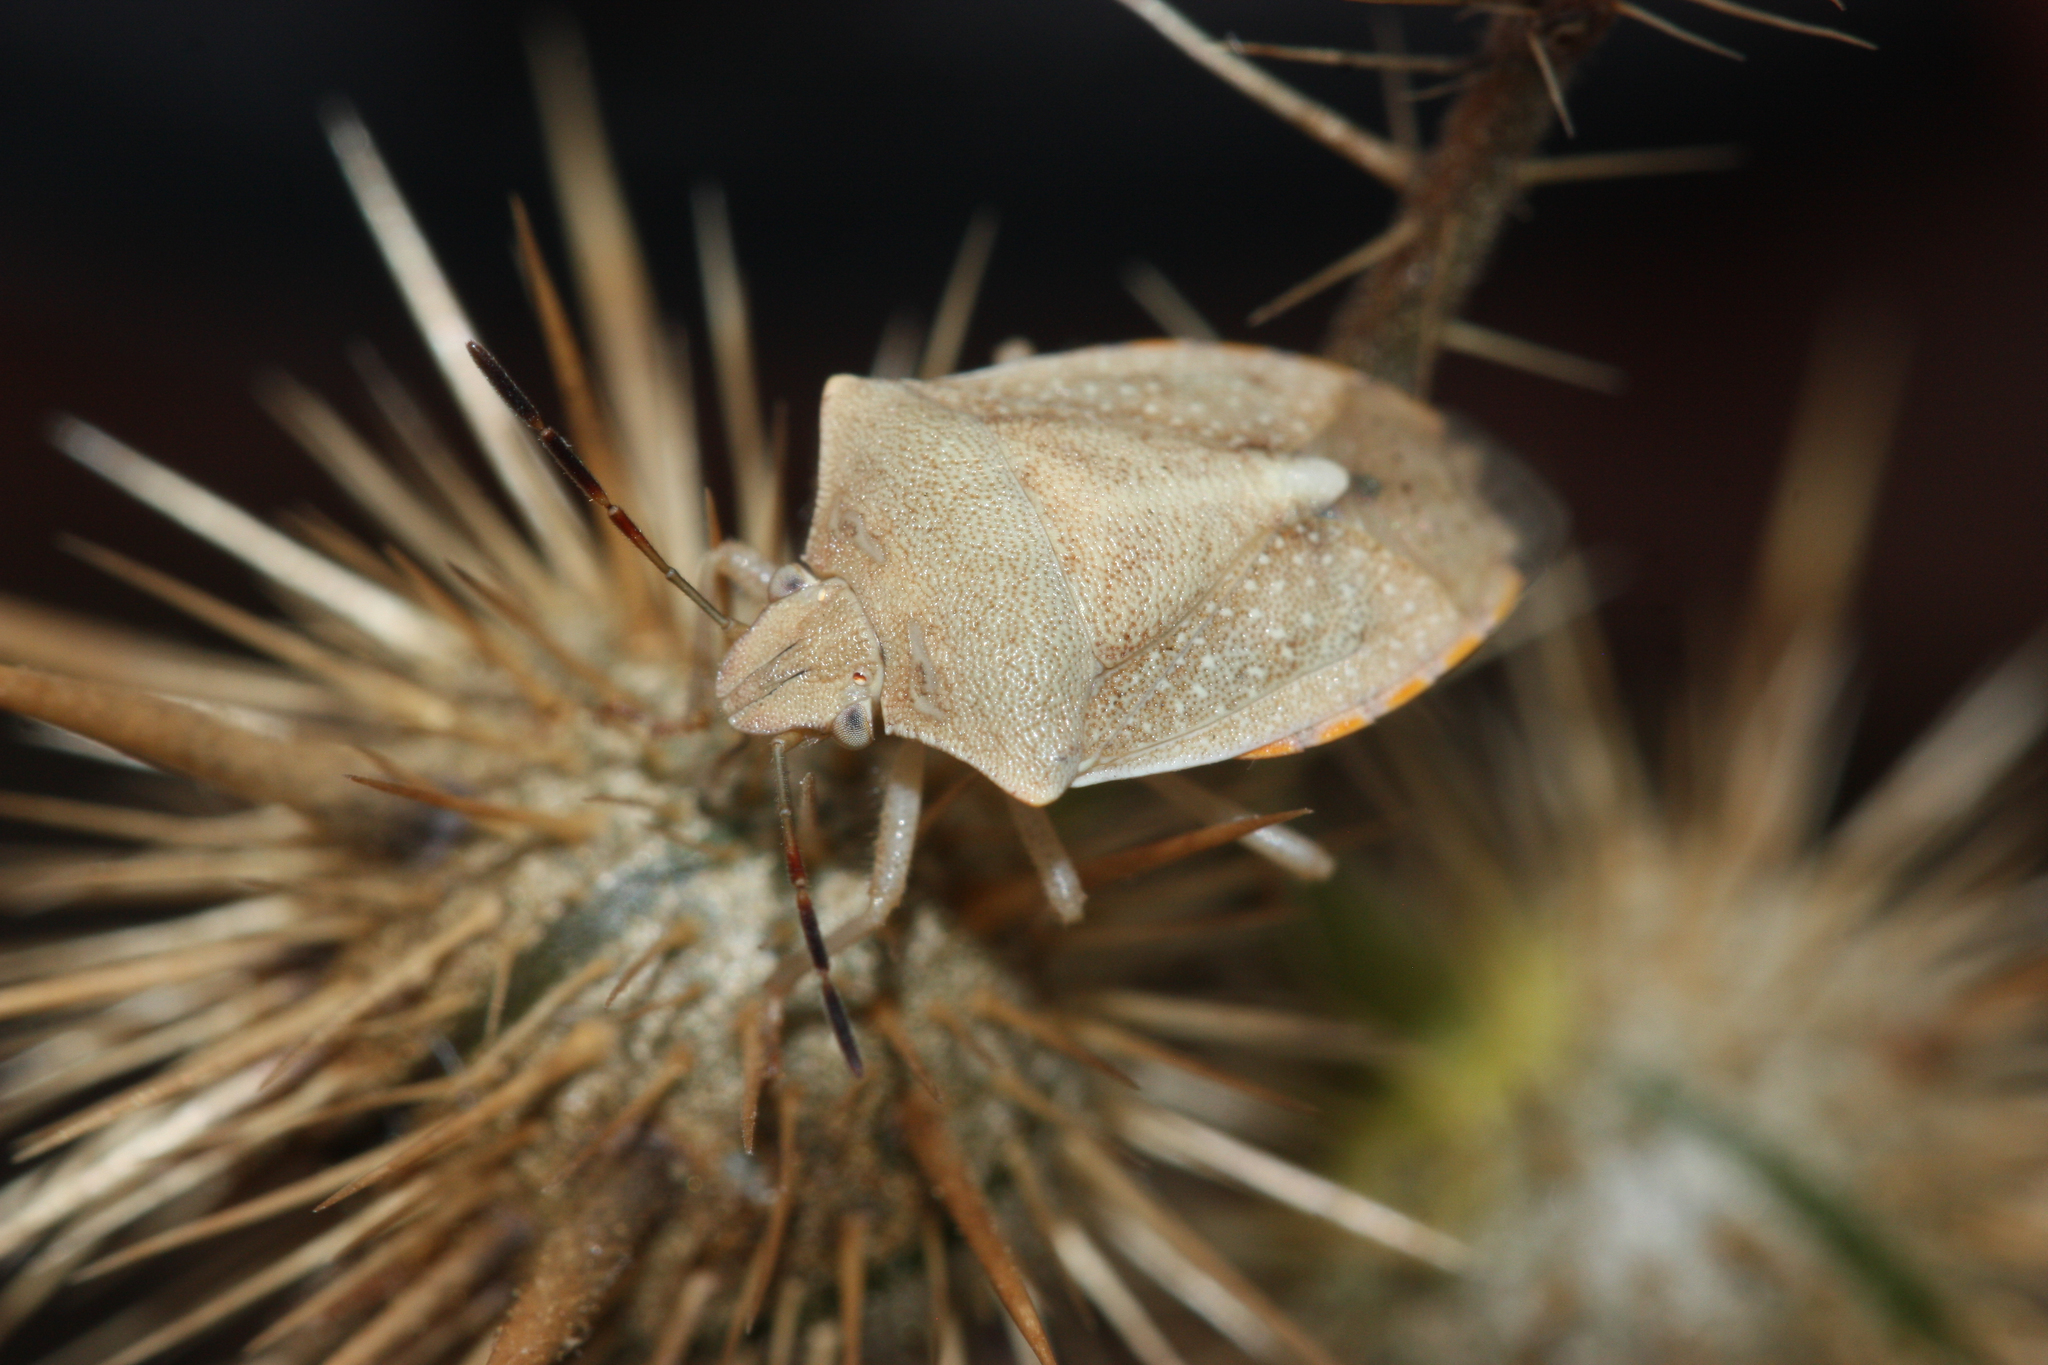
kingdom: Animalia
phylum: Arthropoda
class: Insecta
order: Hemiptera
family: Pentatomidae
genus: Thyanta
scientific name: Thyanta accerra
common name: Stink bug
